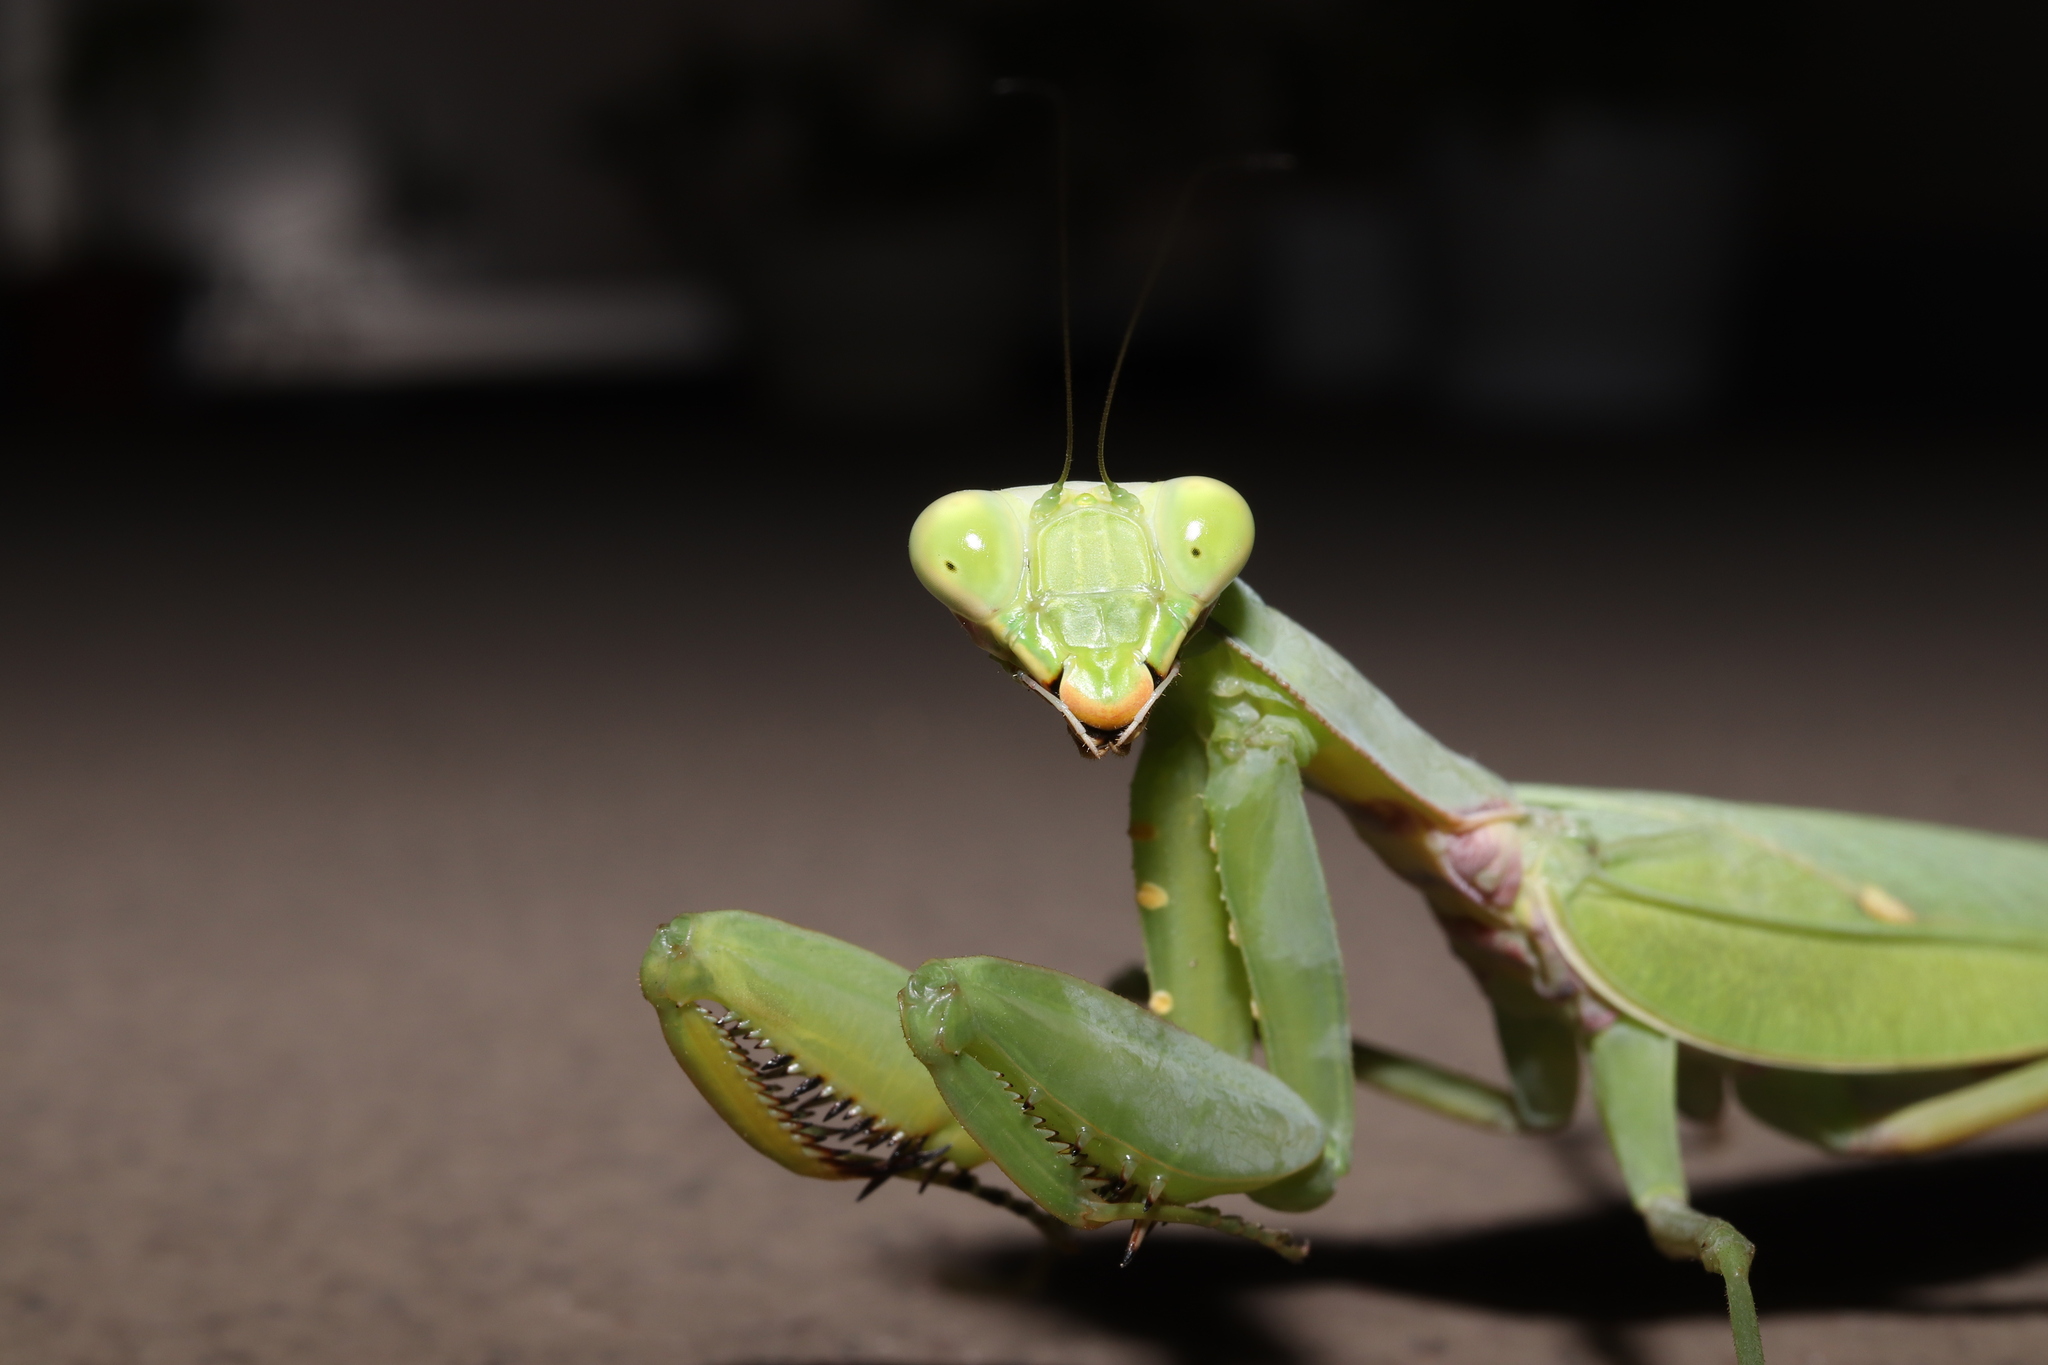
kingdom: Animalia
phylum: Arthropoda
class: Insecta
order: Mantodea
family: Mantidae
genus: Hierodula
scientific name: Hierodula patellifera
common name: Asian mantis
